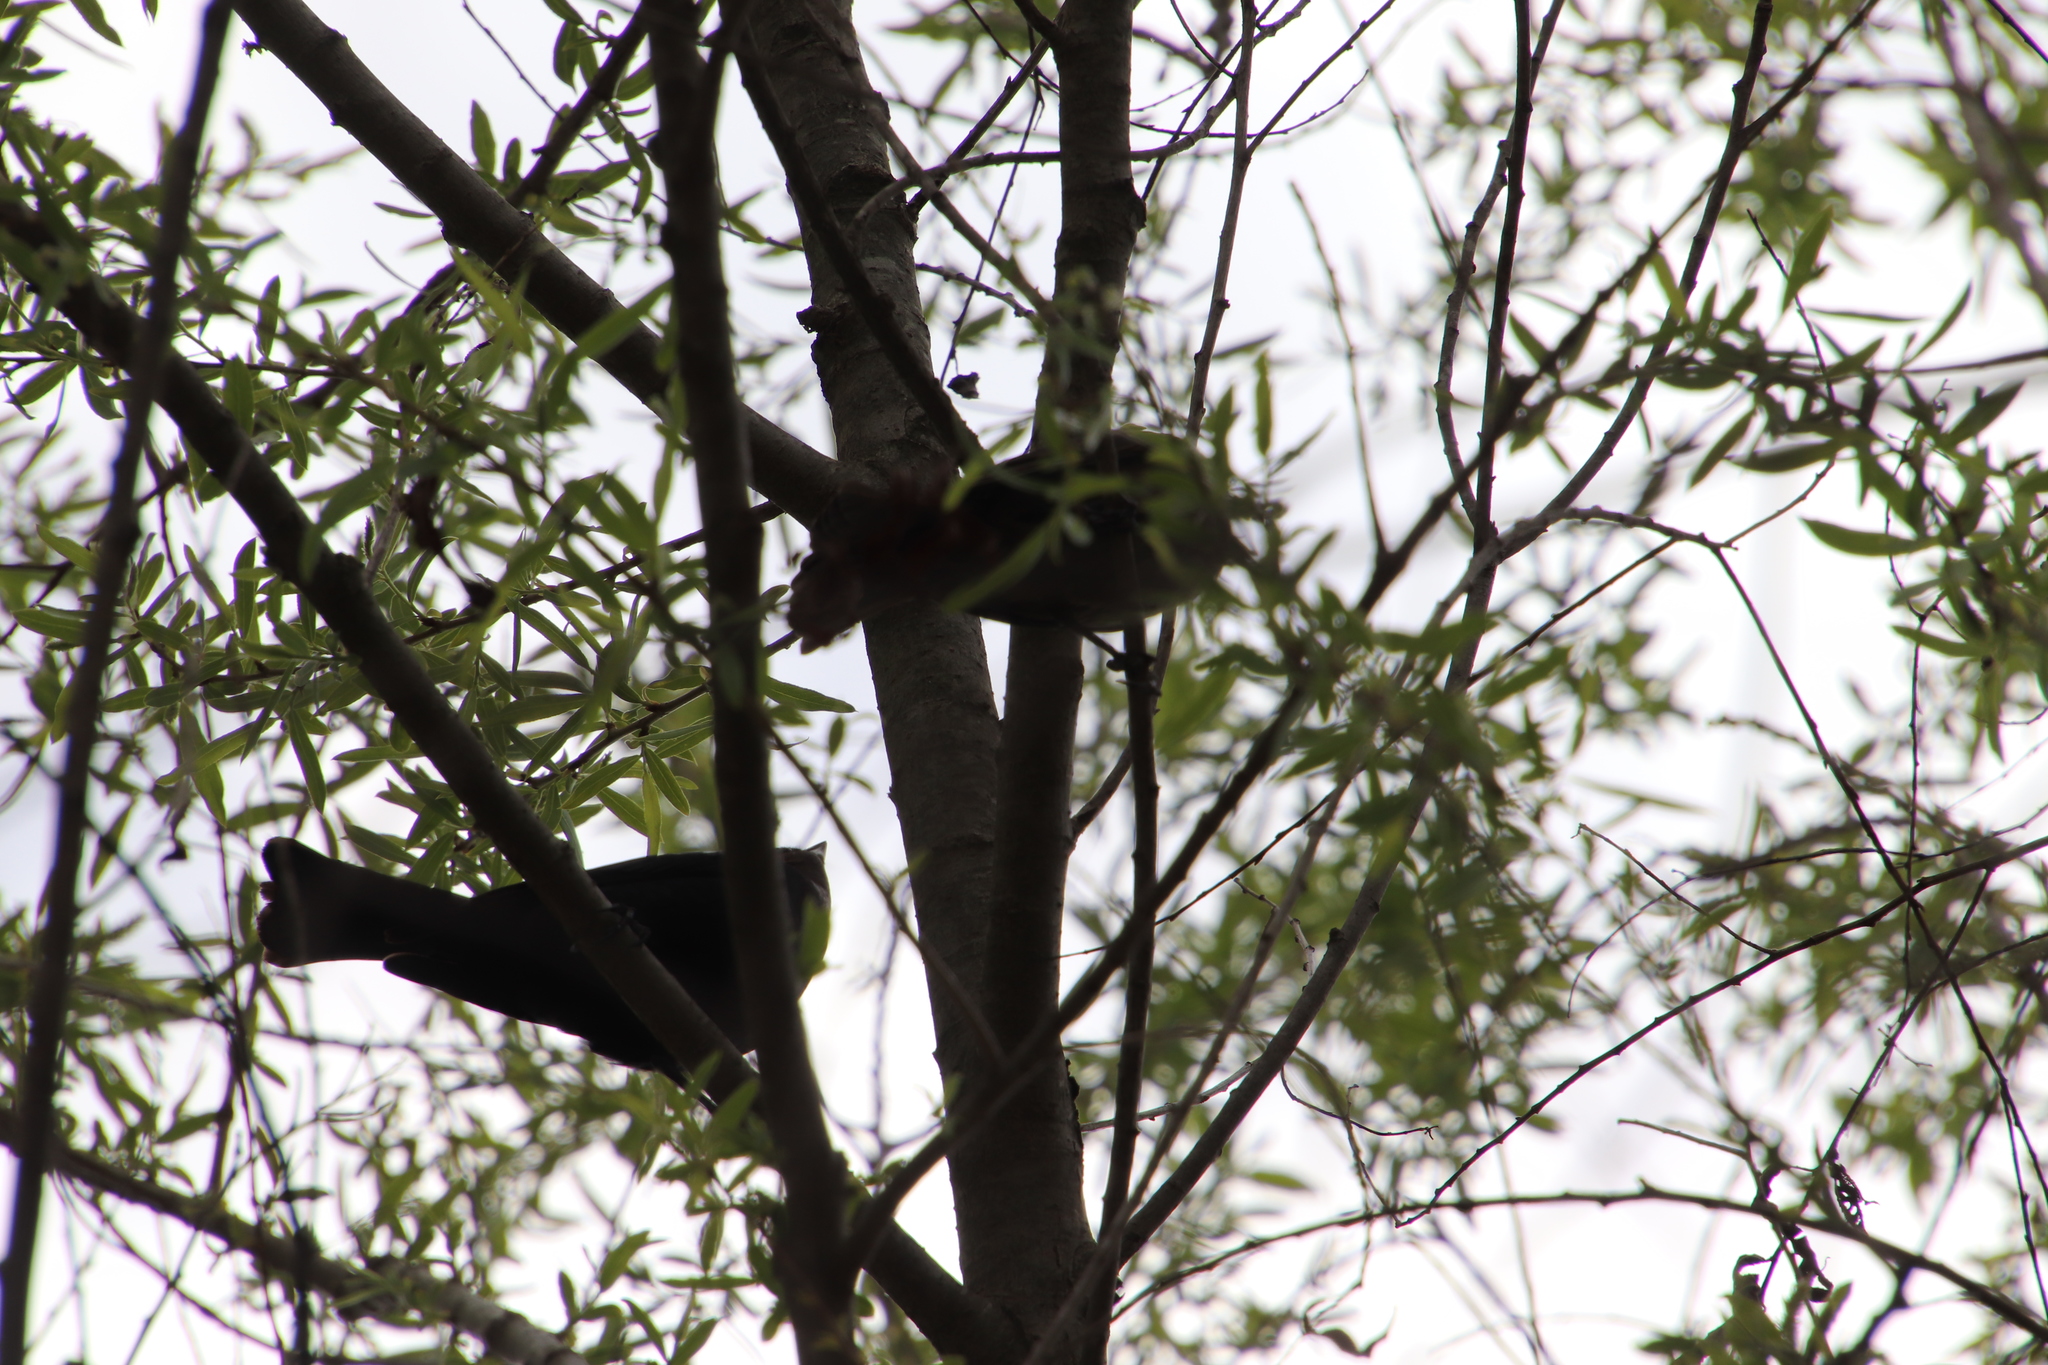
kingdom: Animalia
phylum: Chordata
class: Aves
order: Passeriformes
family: Icteridae
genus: Molothrus
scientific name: Molothrus ater
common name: Brown-headed cowbird
